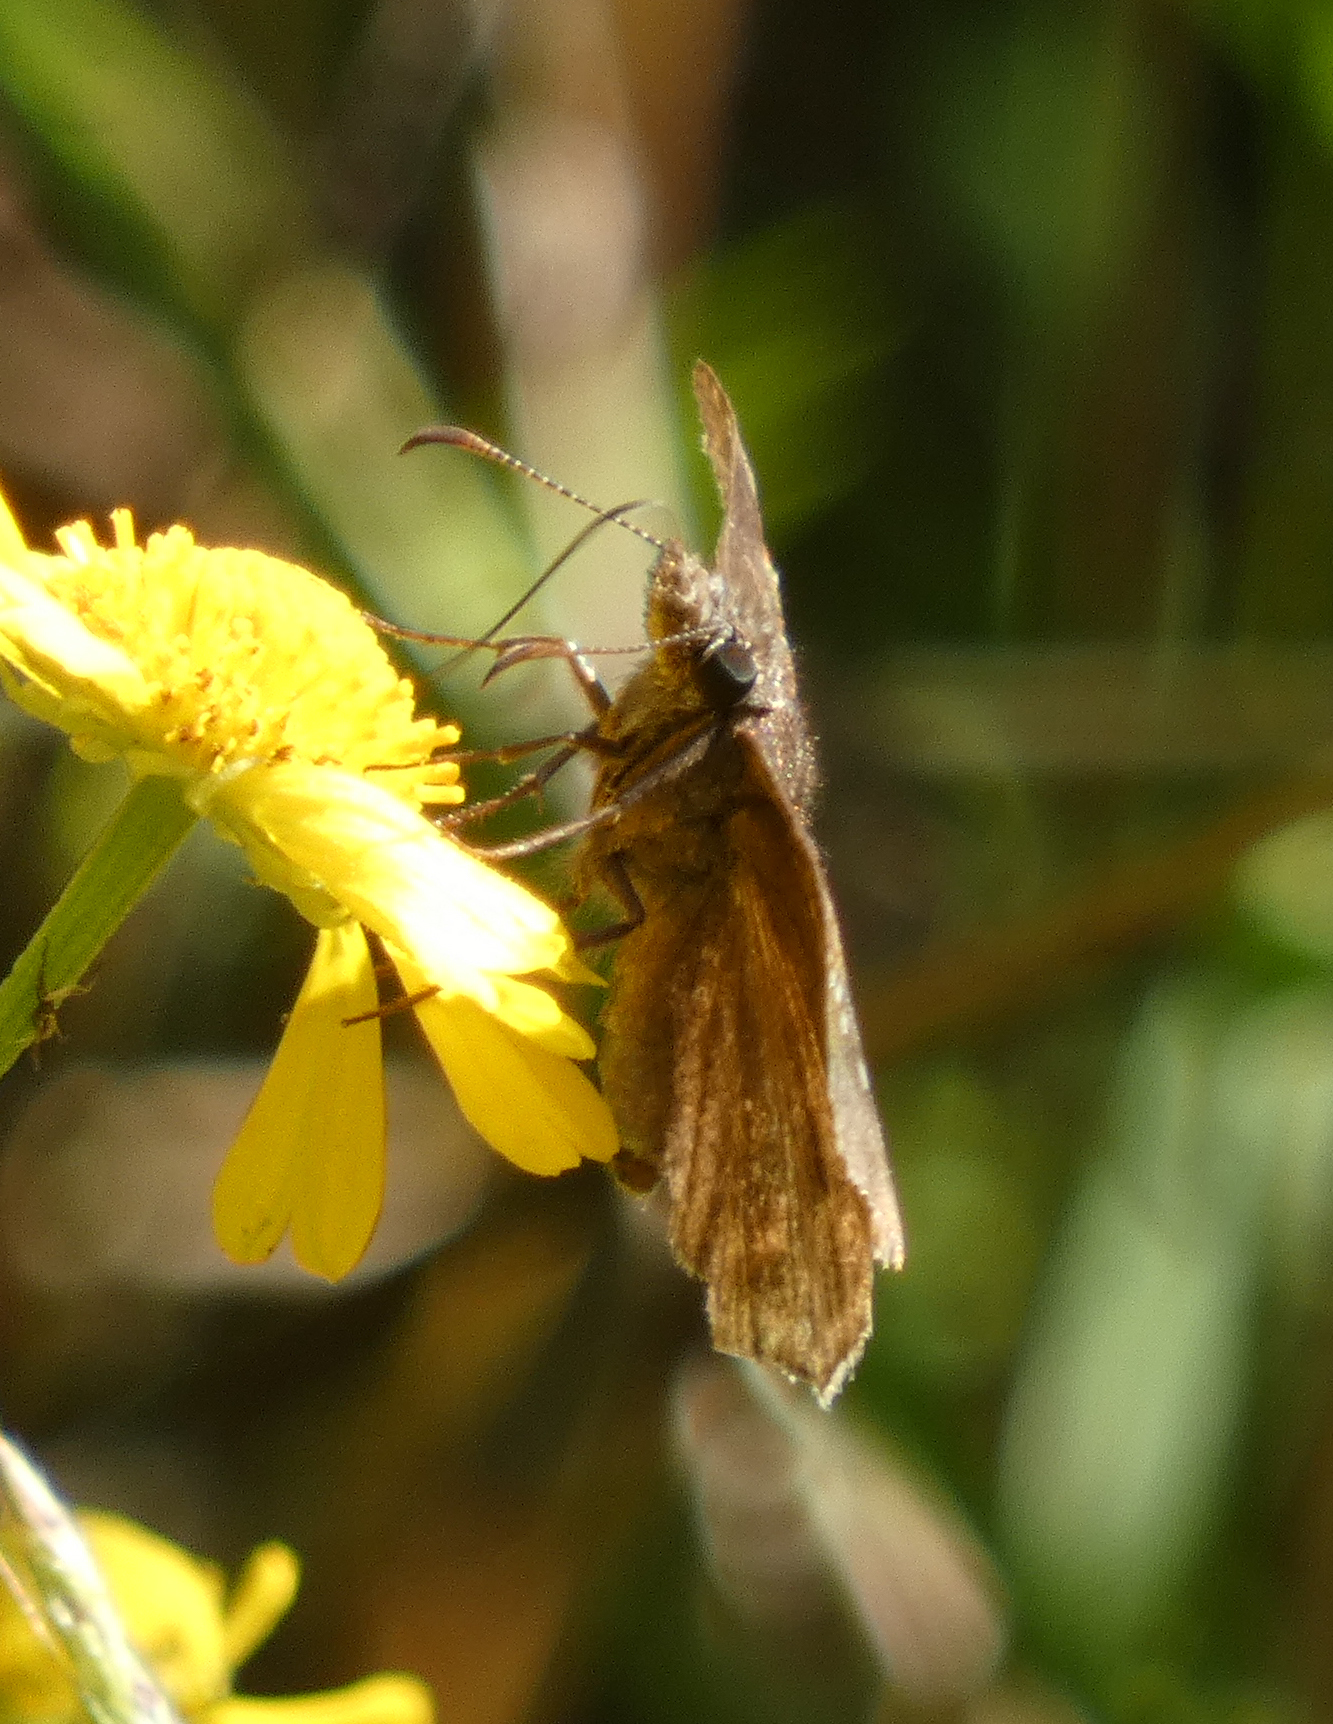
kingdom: Animalia
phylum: Arthropoda
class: Insecta
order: Lepidoptera
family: Hesperiidae
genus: Erynnis
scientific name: Erynnis baptisiae
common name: Wild indigo duskywing
